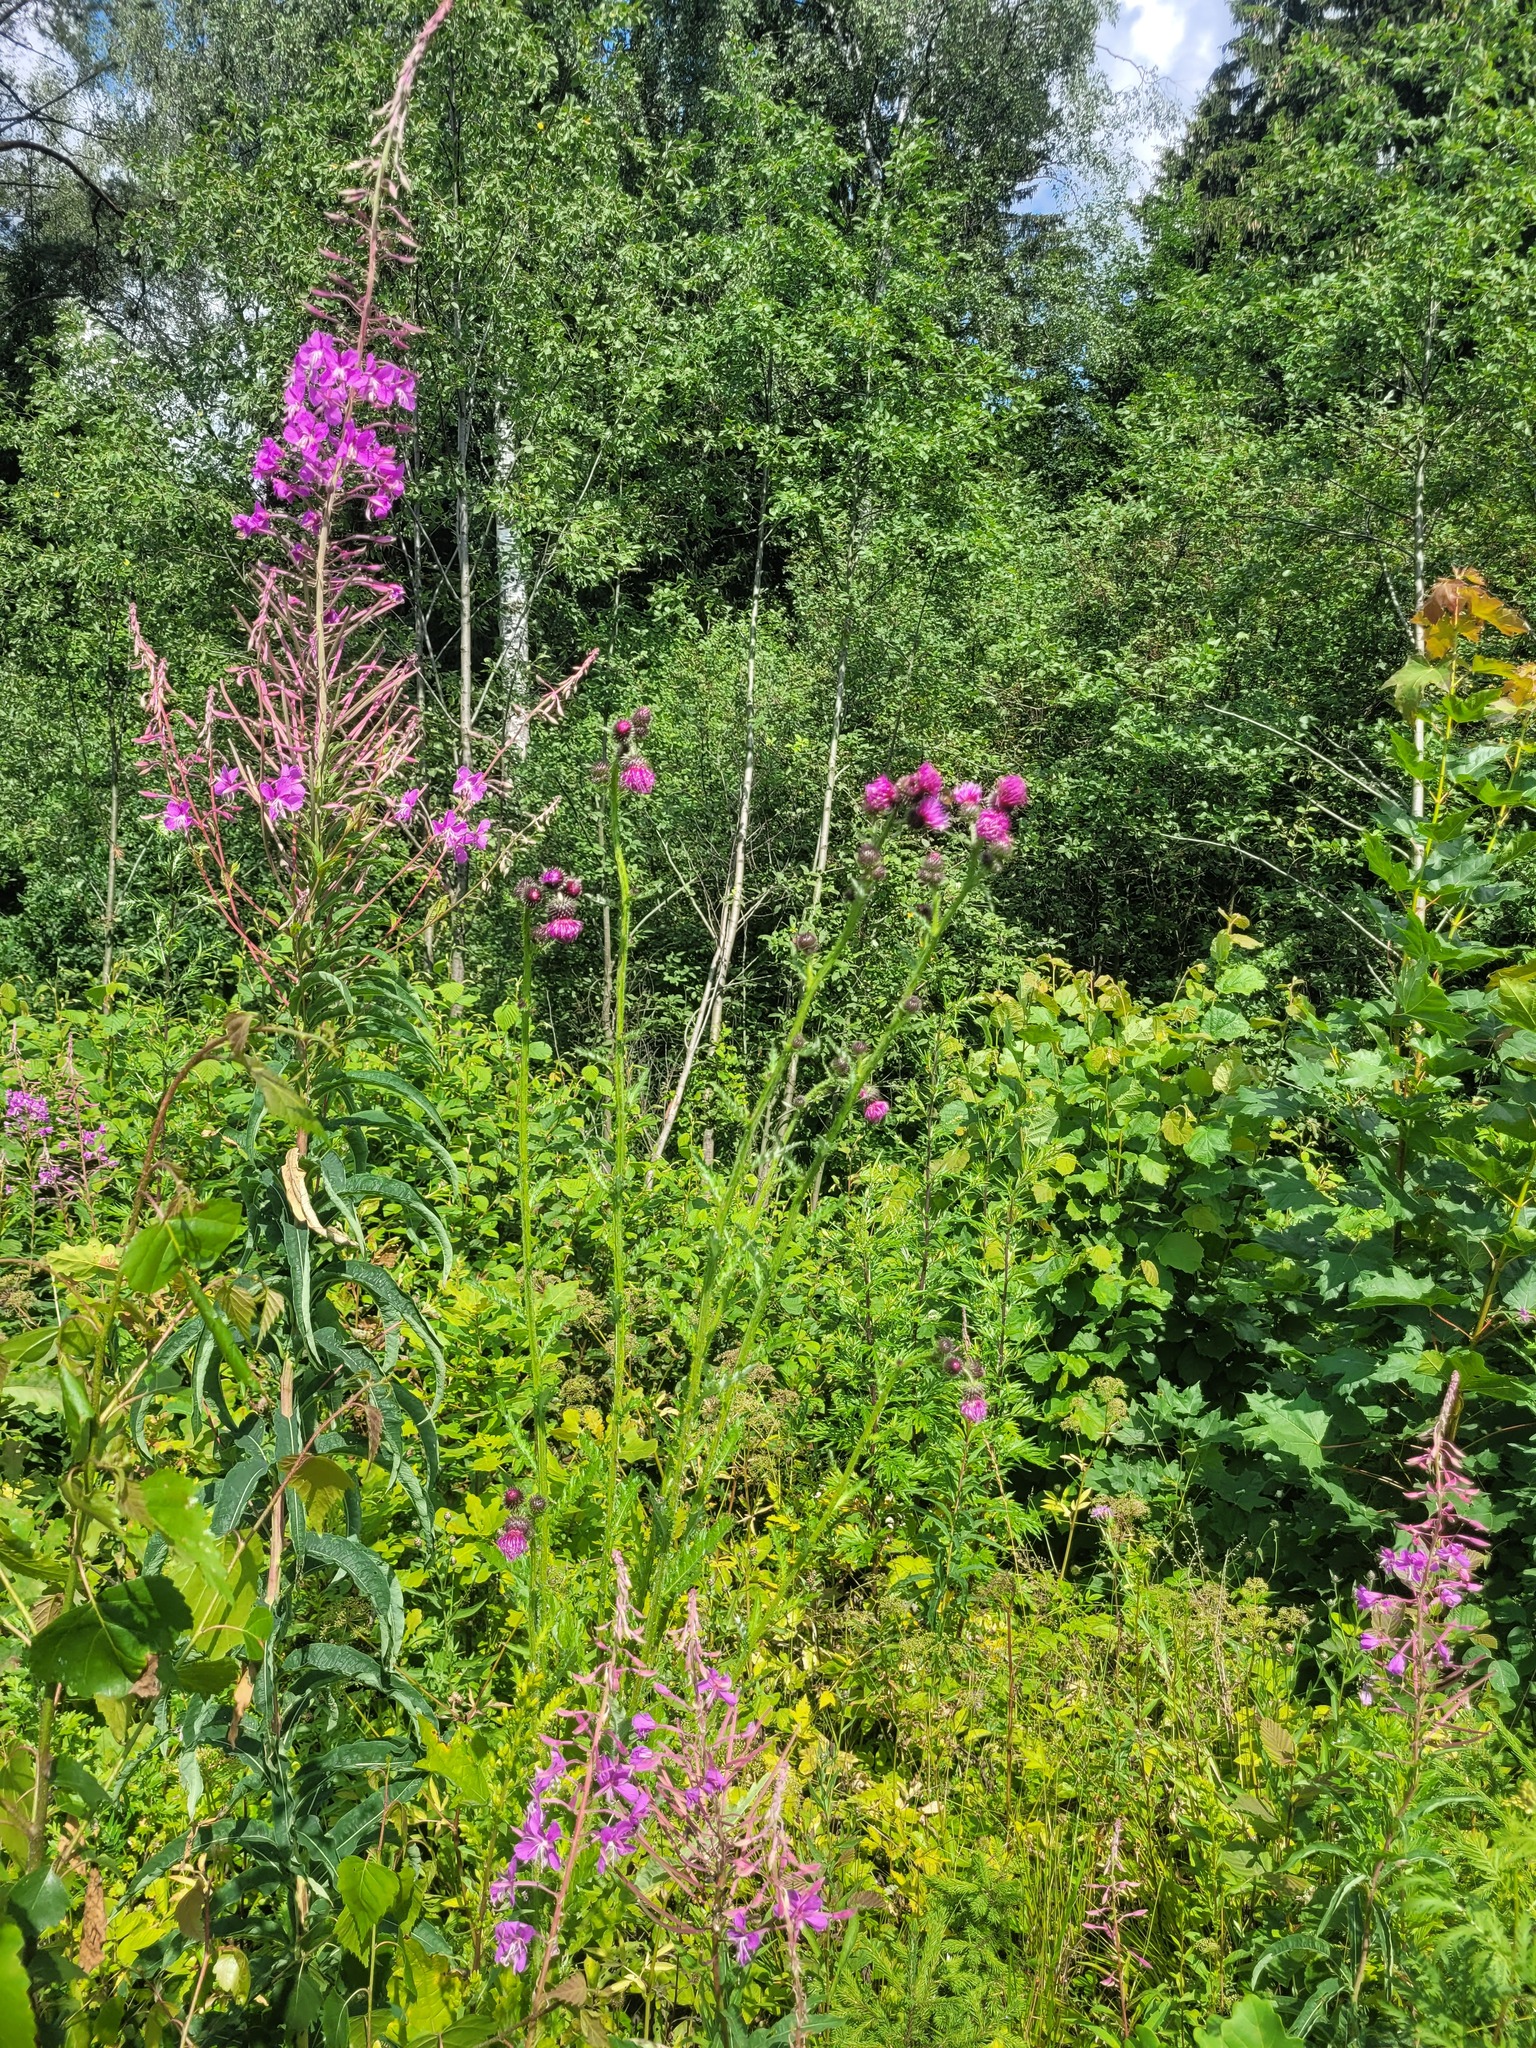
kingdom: Plantae
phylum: Tracheophyta
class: Magnoliopsida
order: Asterales
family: Asteraceae
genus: Carduus
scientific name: Carduus crispus
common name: Welted thistle
